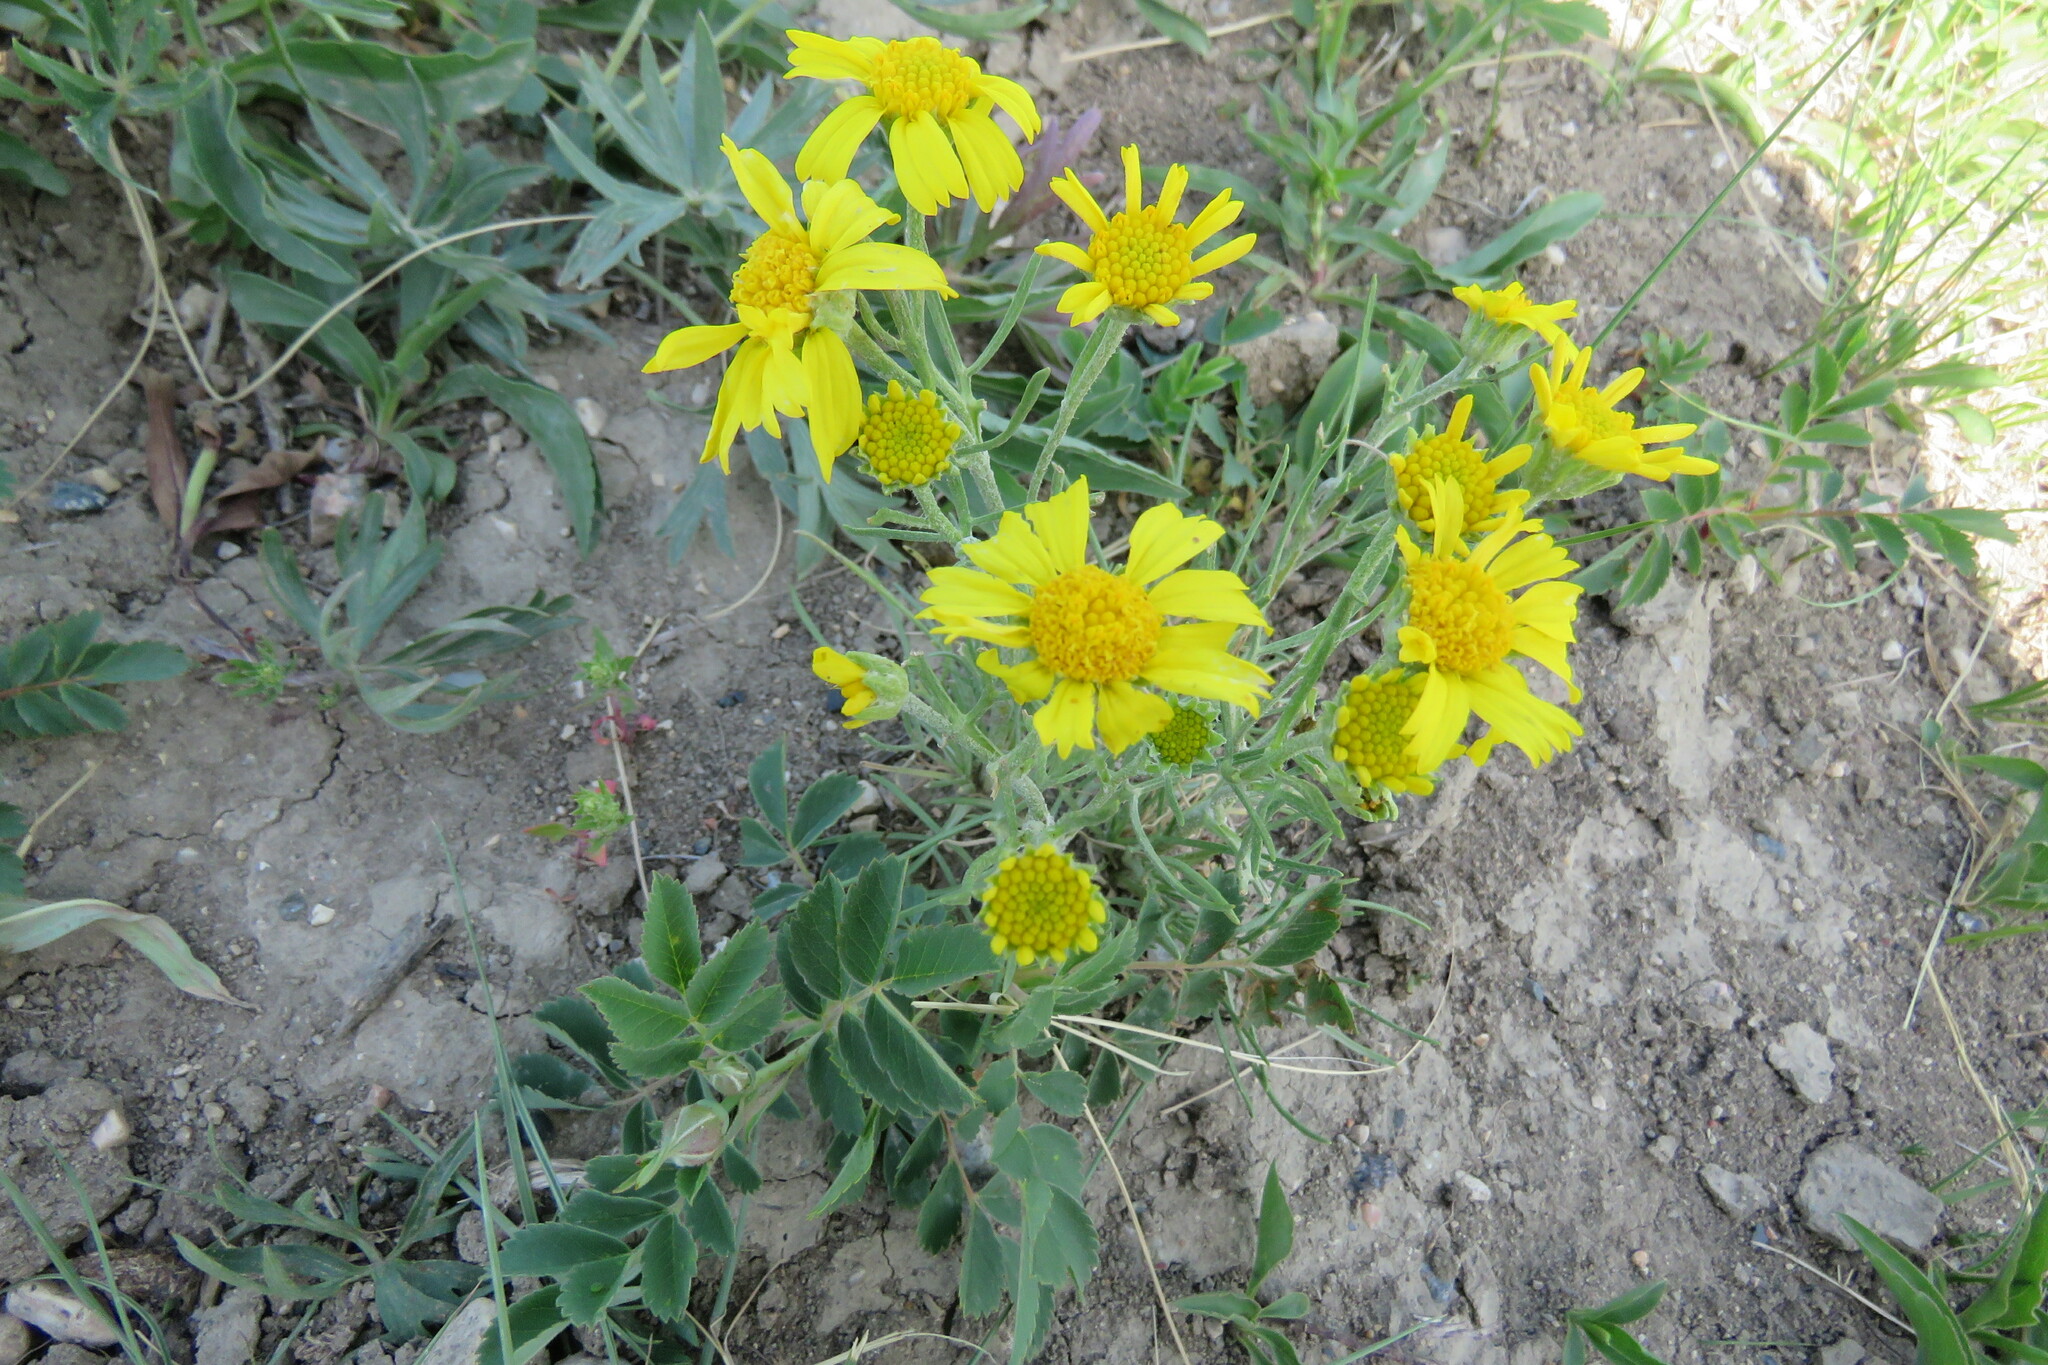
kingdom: Plantae
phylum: Tracheophyta
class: Magnoliopsida
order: Asterales
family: Asteraceae
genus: Hymenoxys
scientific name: Hymenoxys richardsonii
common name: Pingue rubberweed
